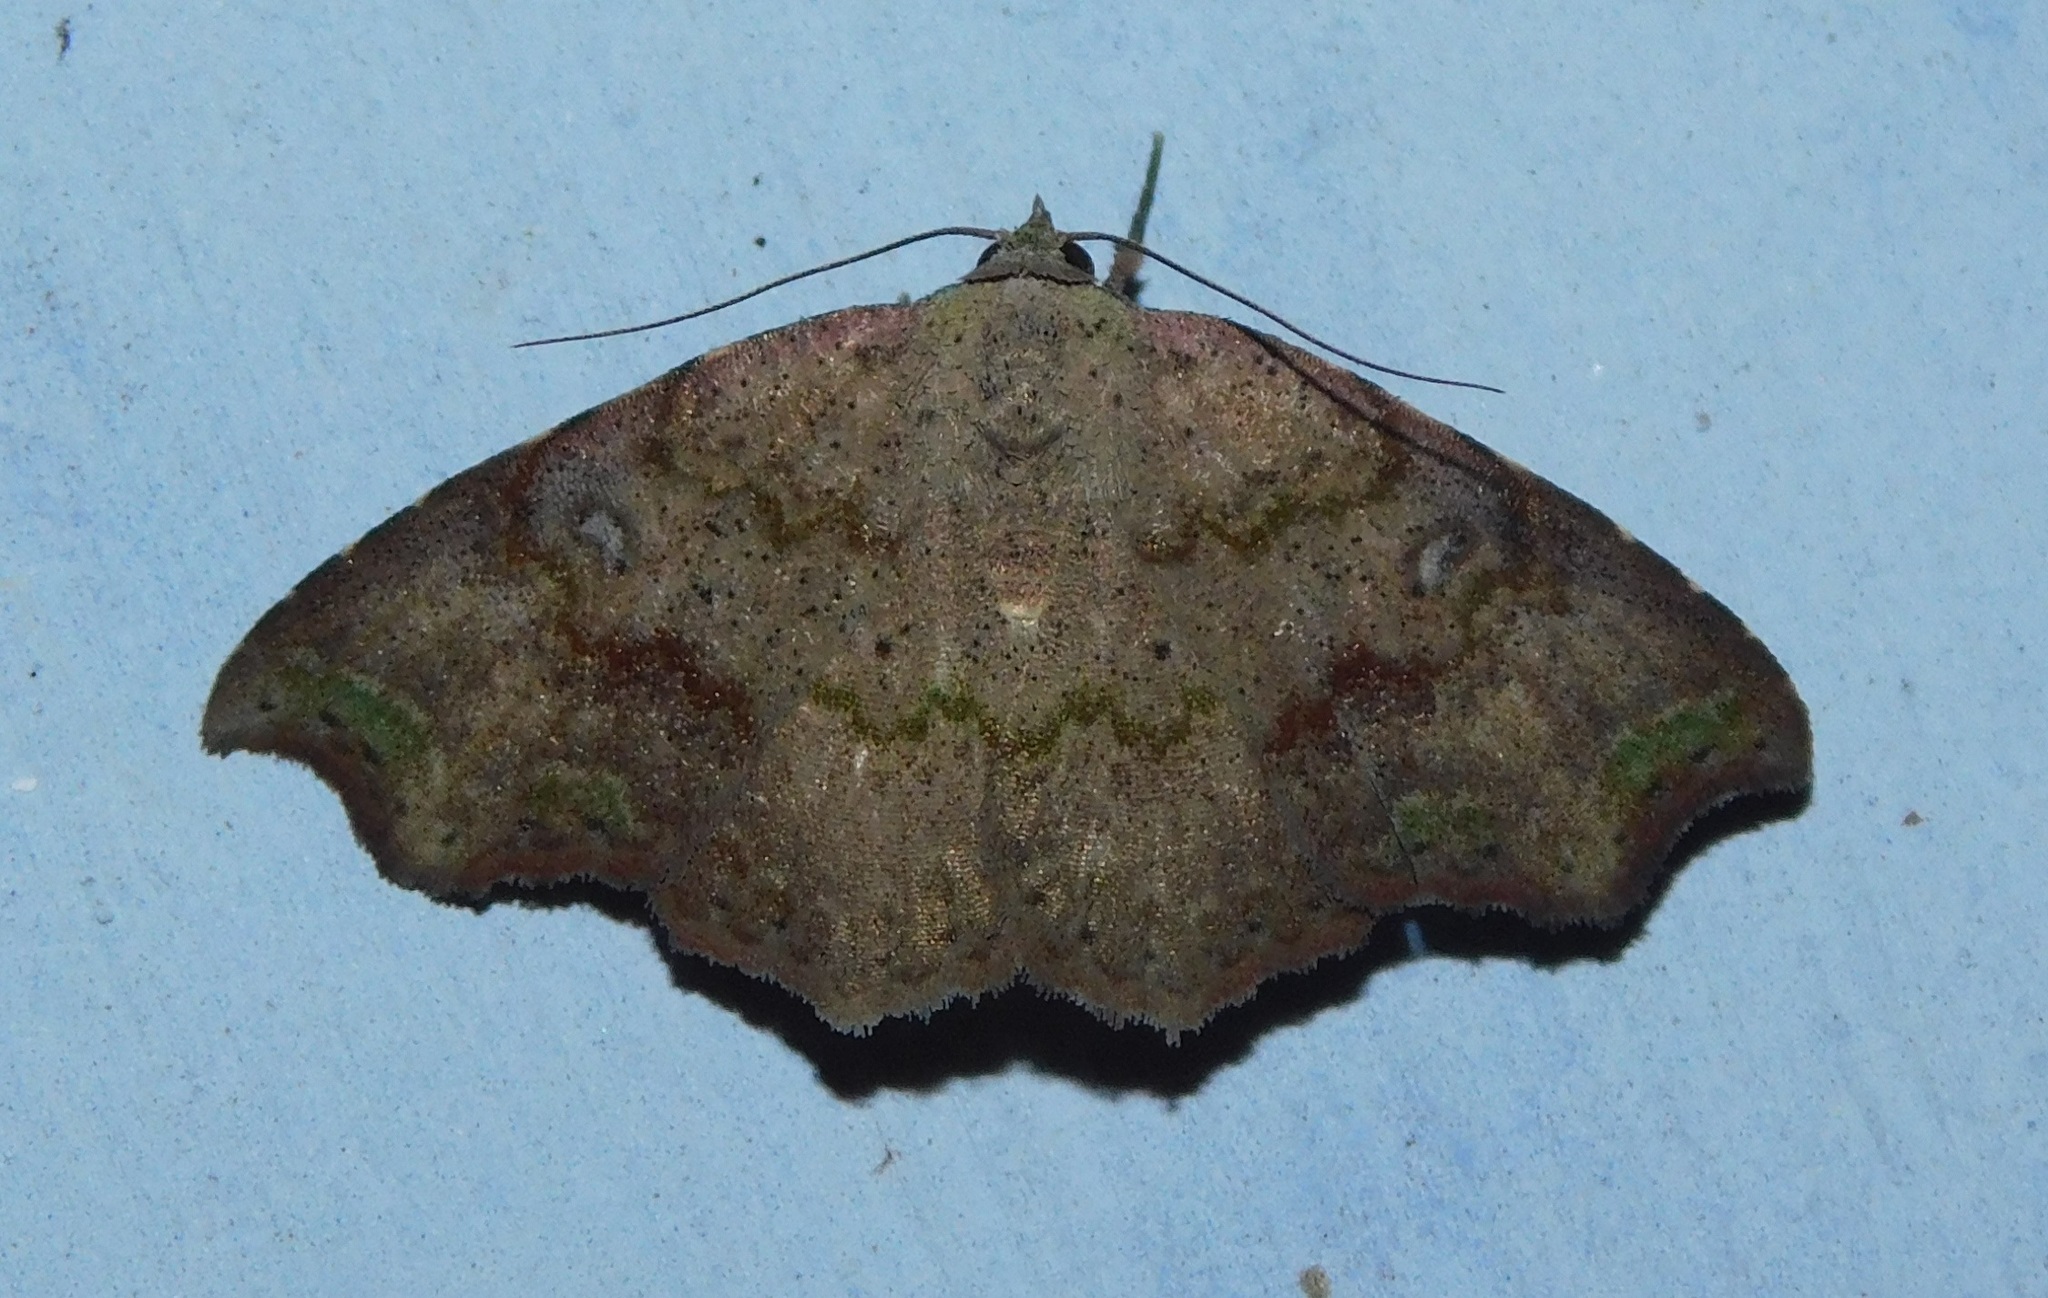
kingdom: Animalia
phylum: Arthropoda
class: Insecta
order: Lepidoptera
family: Erebidae
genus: Laspeyria
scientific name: Laspeyria viridicincta
